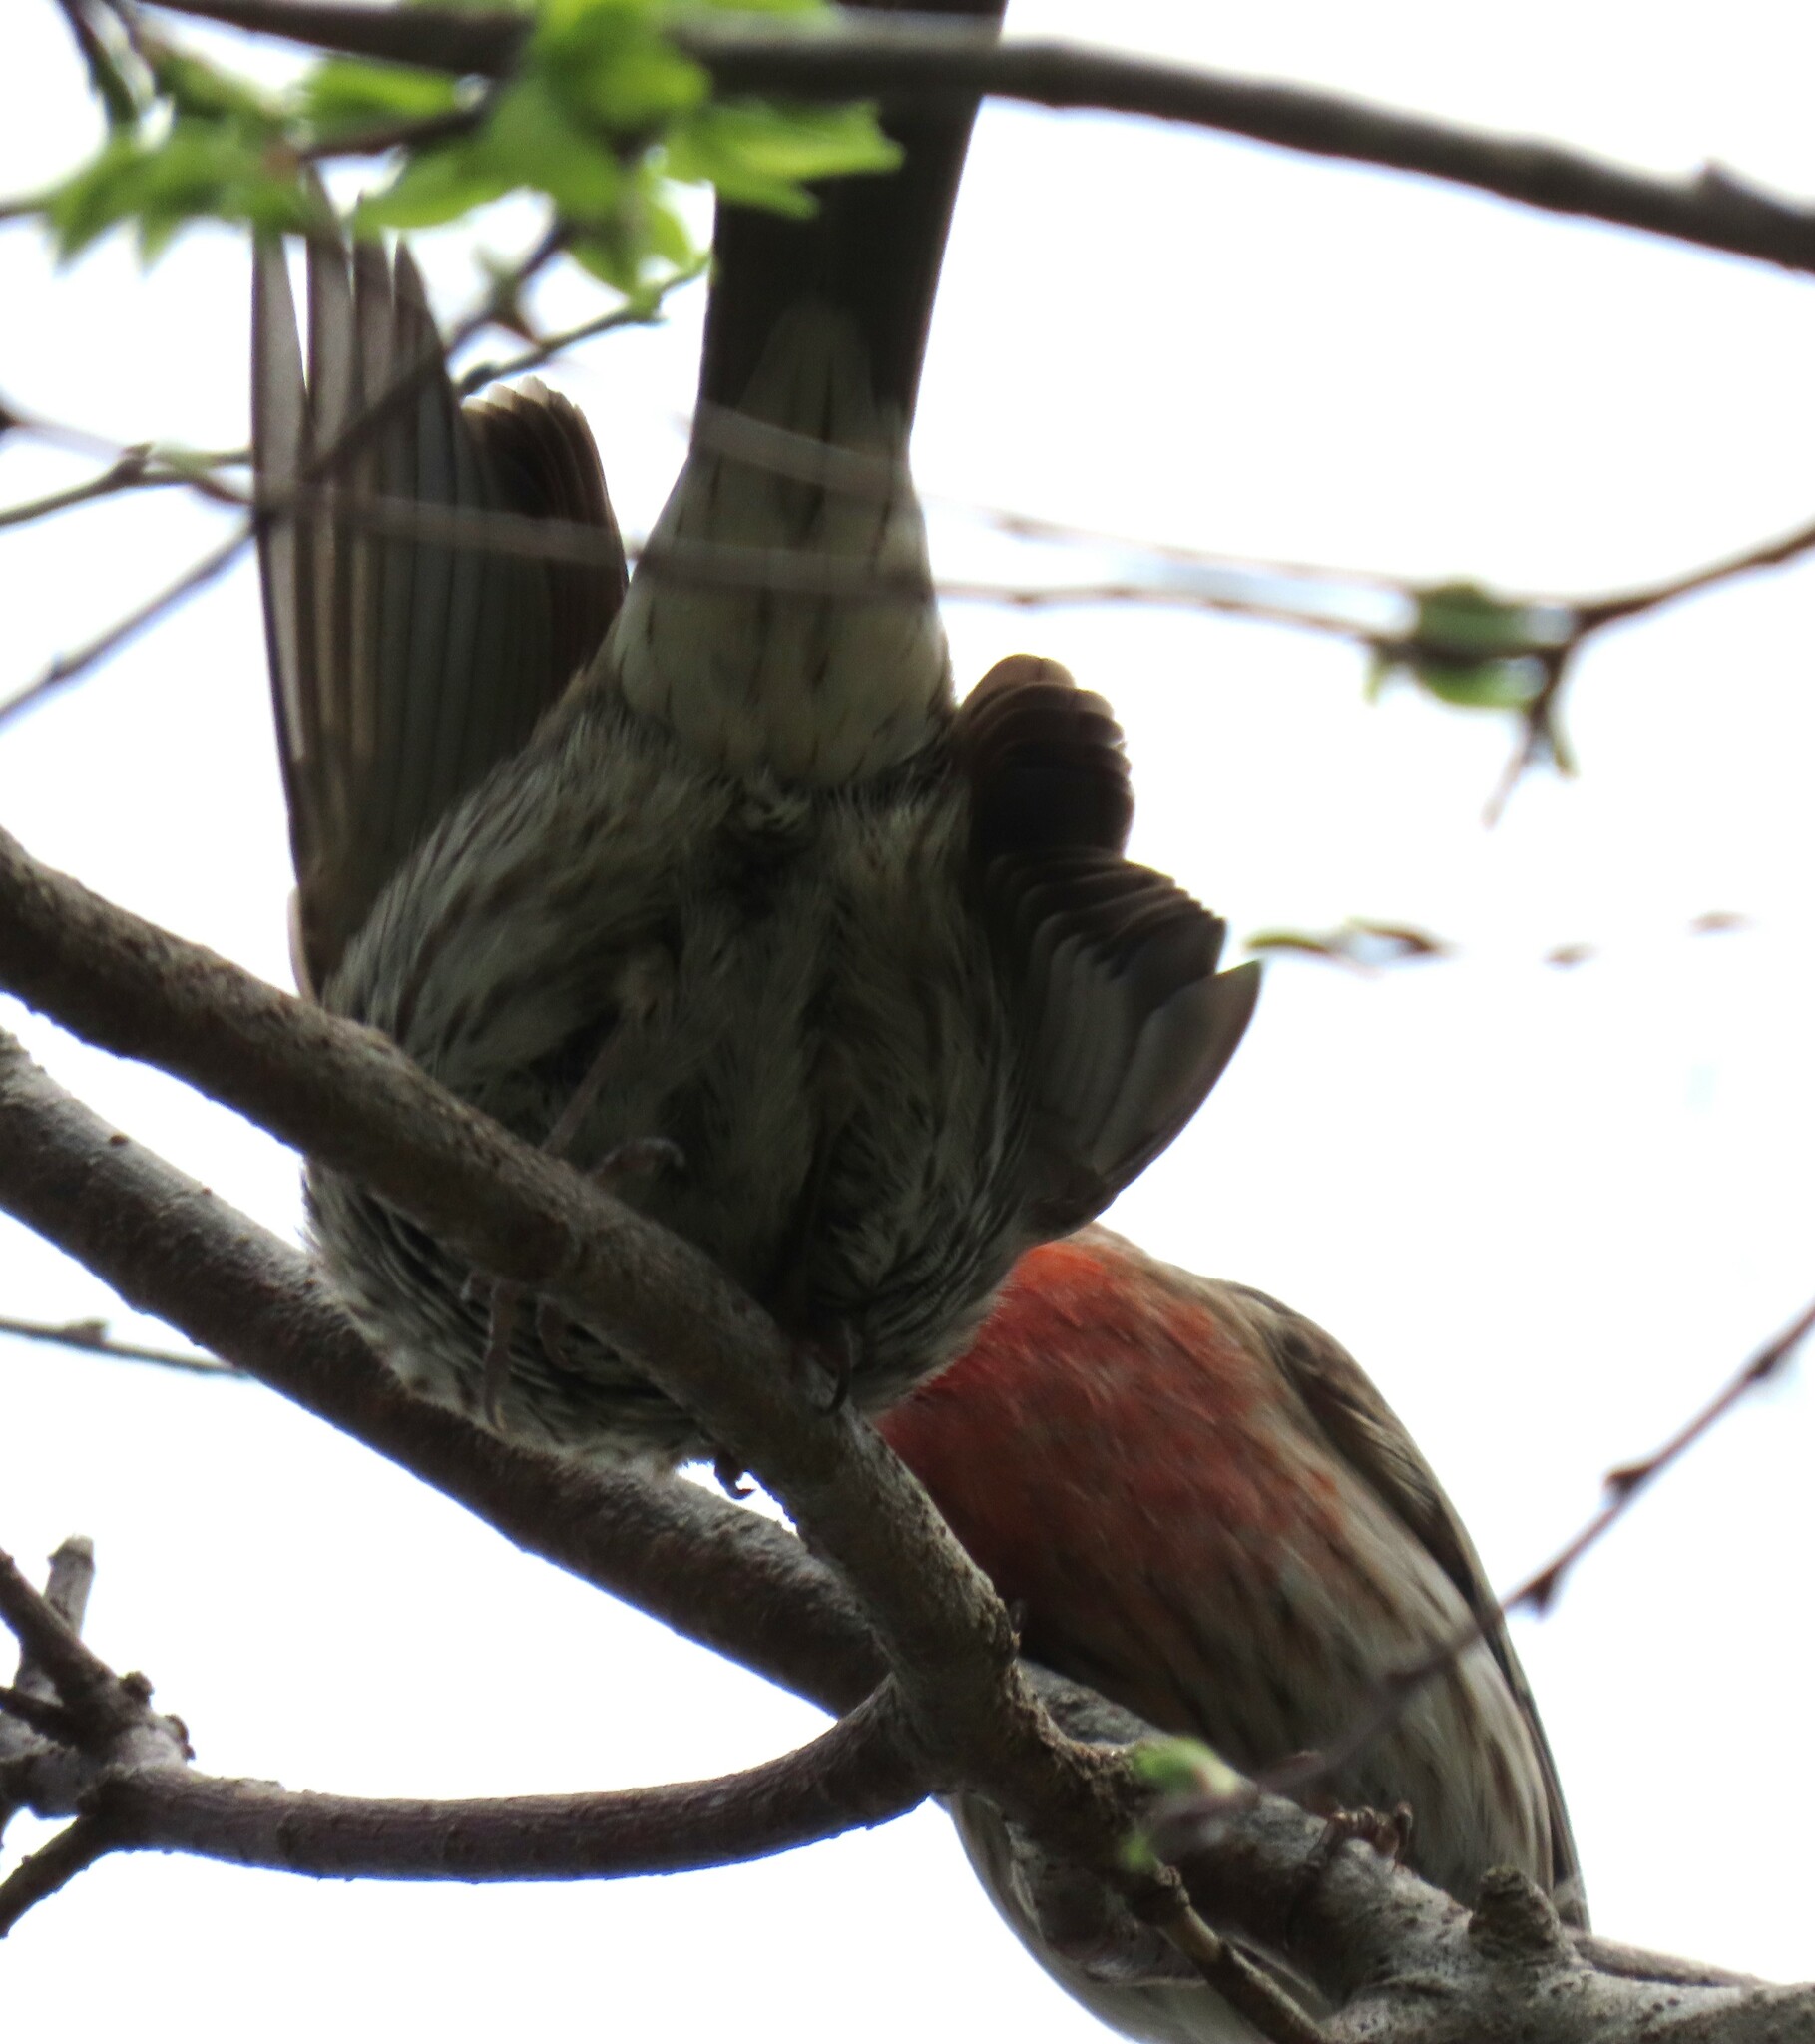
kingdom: Animalia
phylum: Chordata
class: Aves
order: Passeriformes
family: Fringillidae
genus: Haemorhous
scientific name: Haemorhous mexicanus
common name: House finch
